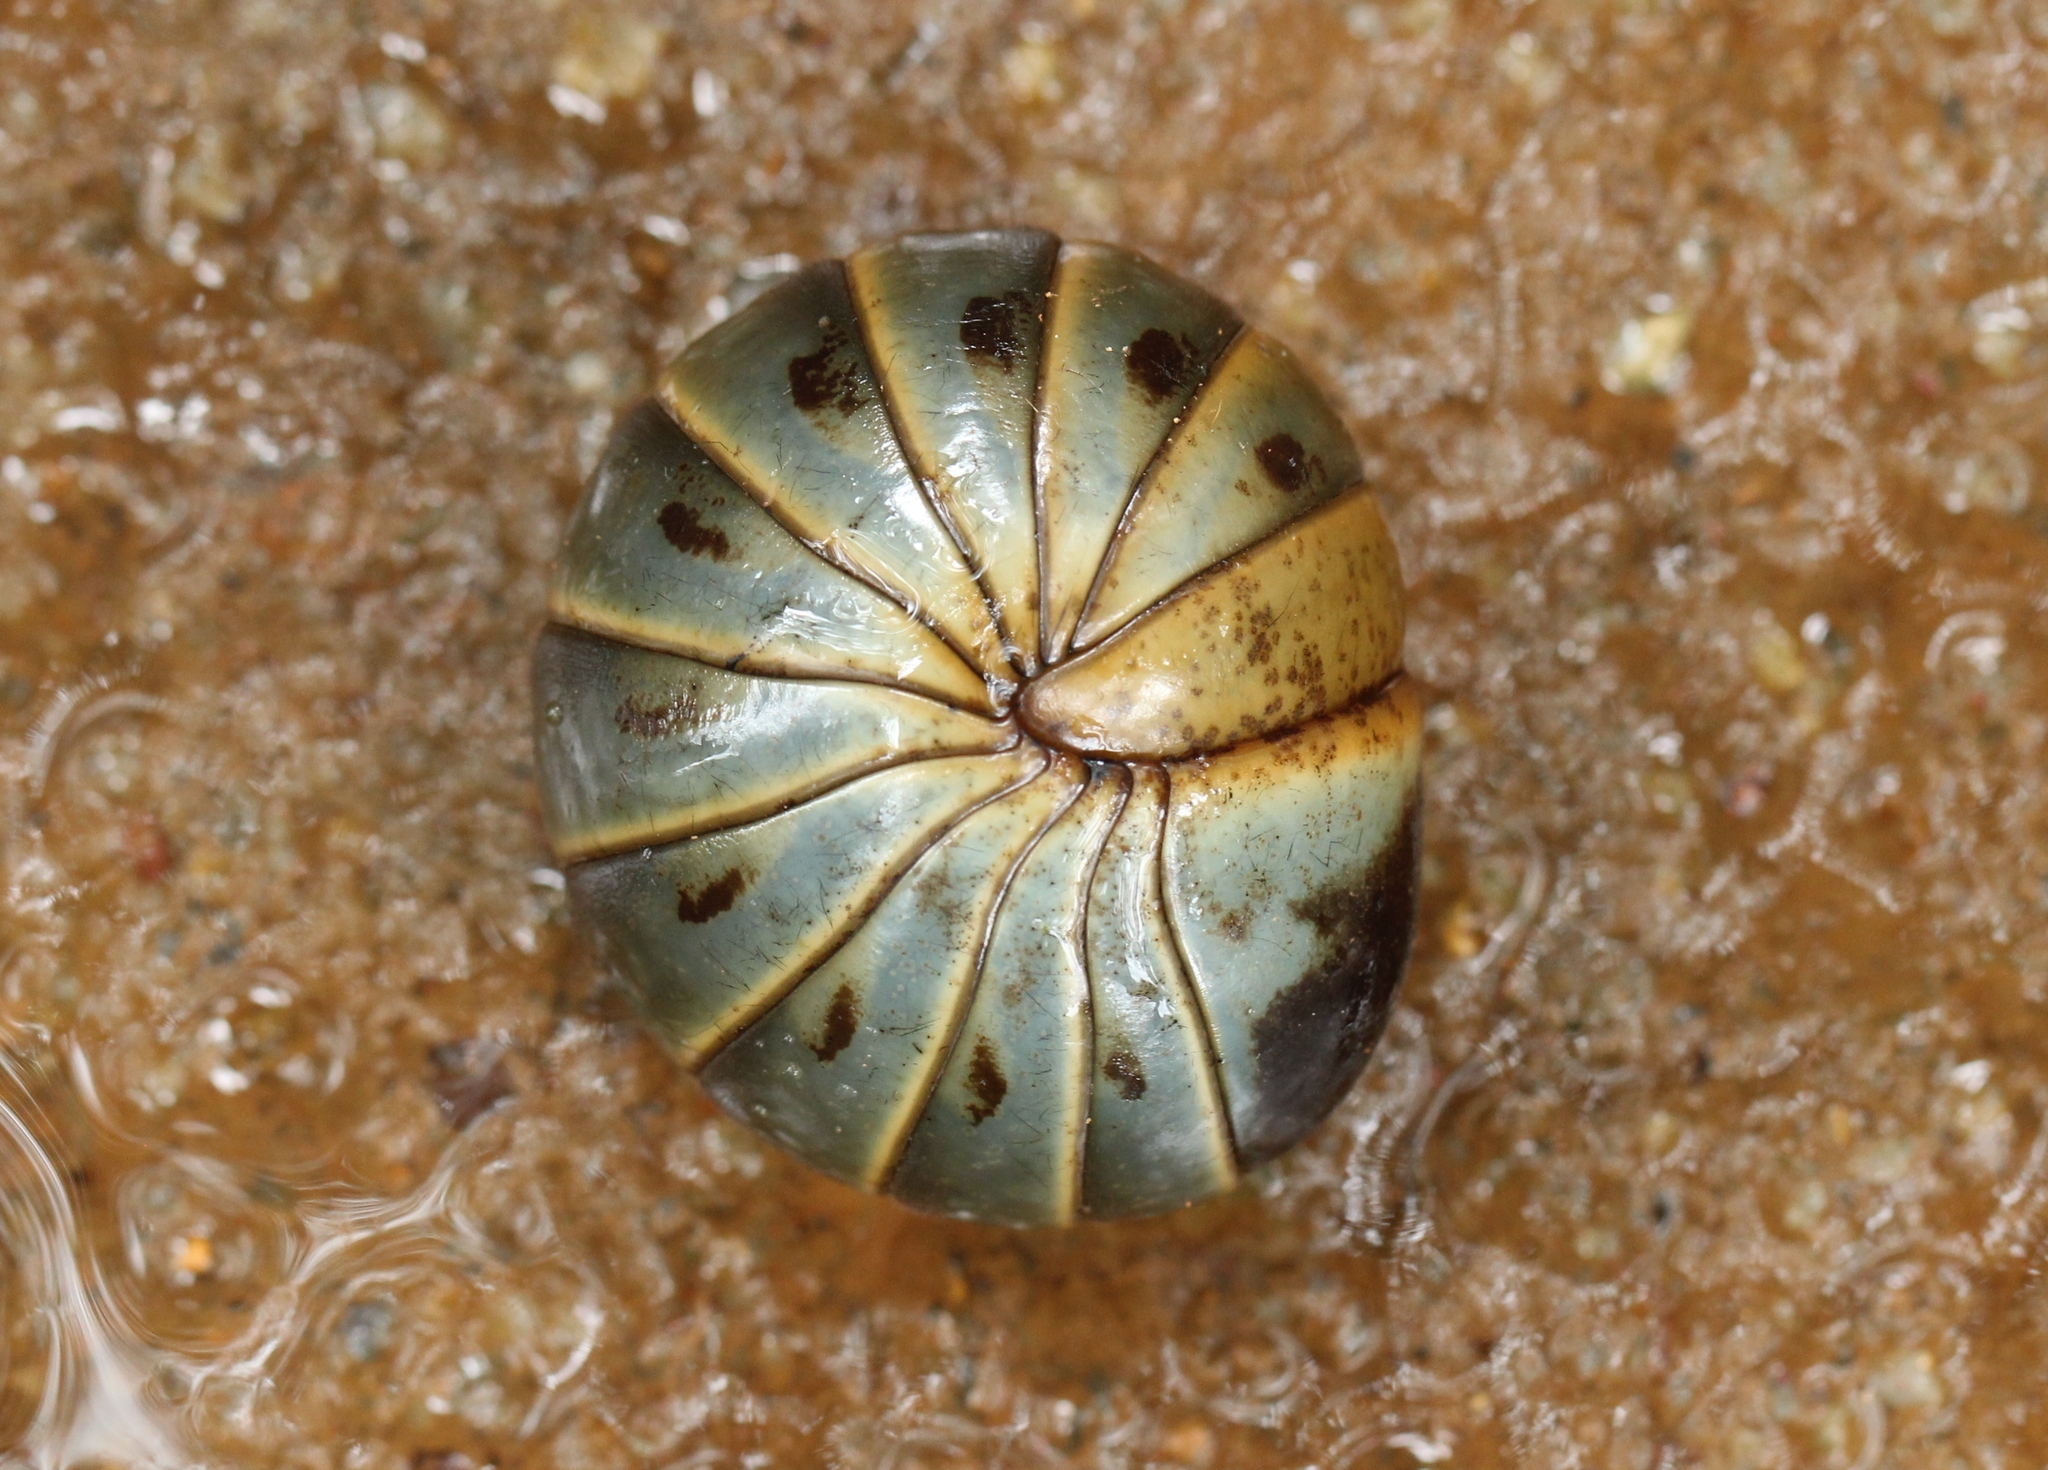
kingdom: Animalia
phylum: Arthropoda
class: Diplopoda
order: Sphaerotheriida
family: Arthrosphaeridae
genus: Arthrosphaera
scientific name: Arthrosphaera fumosa
